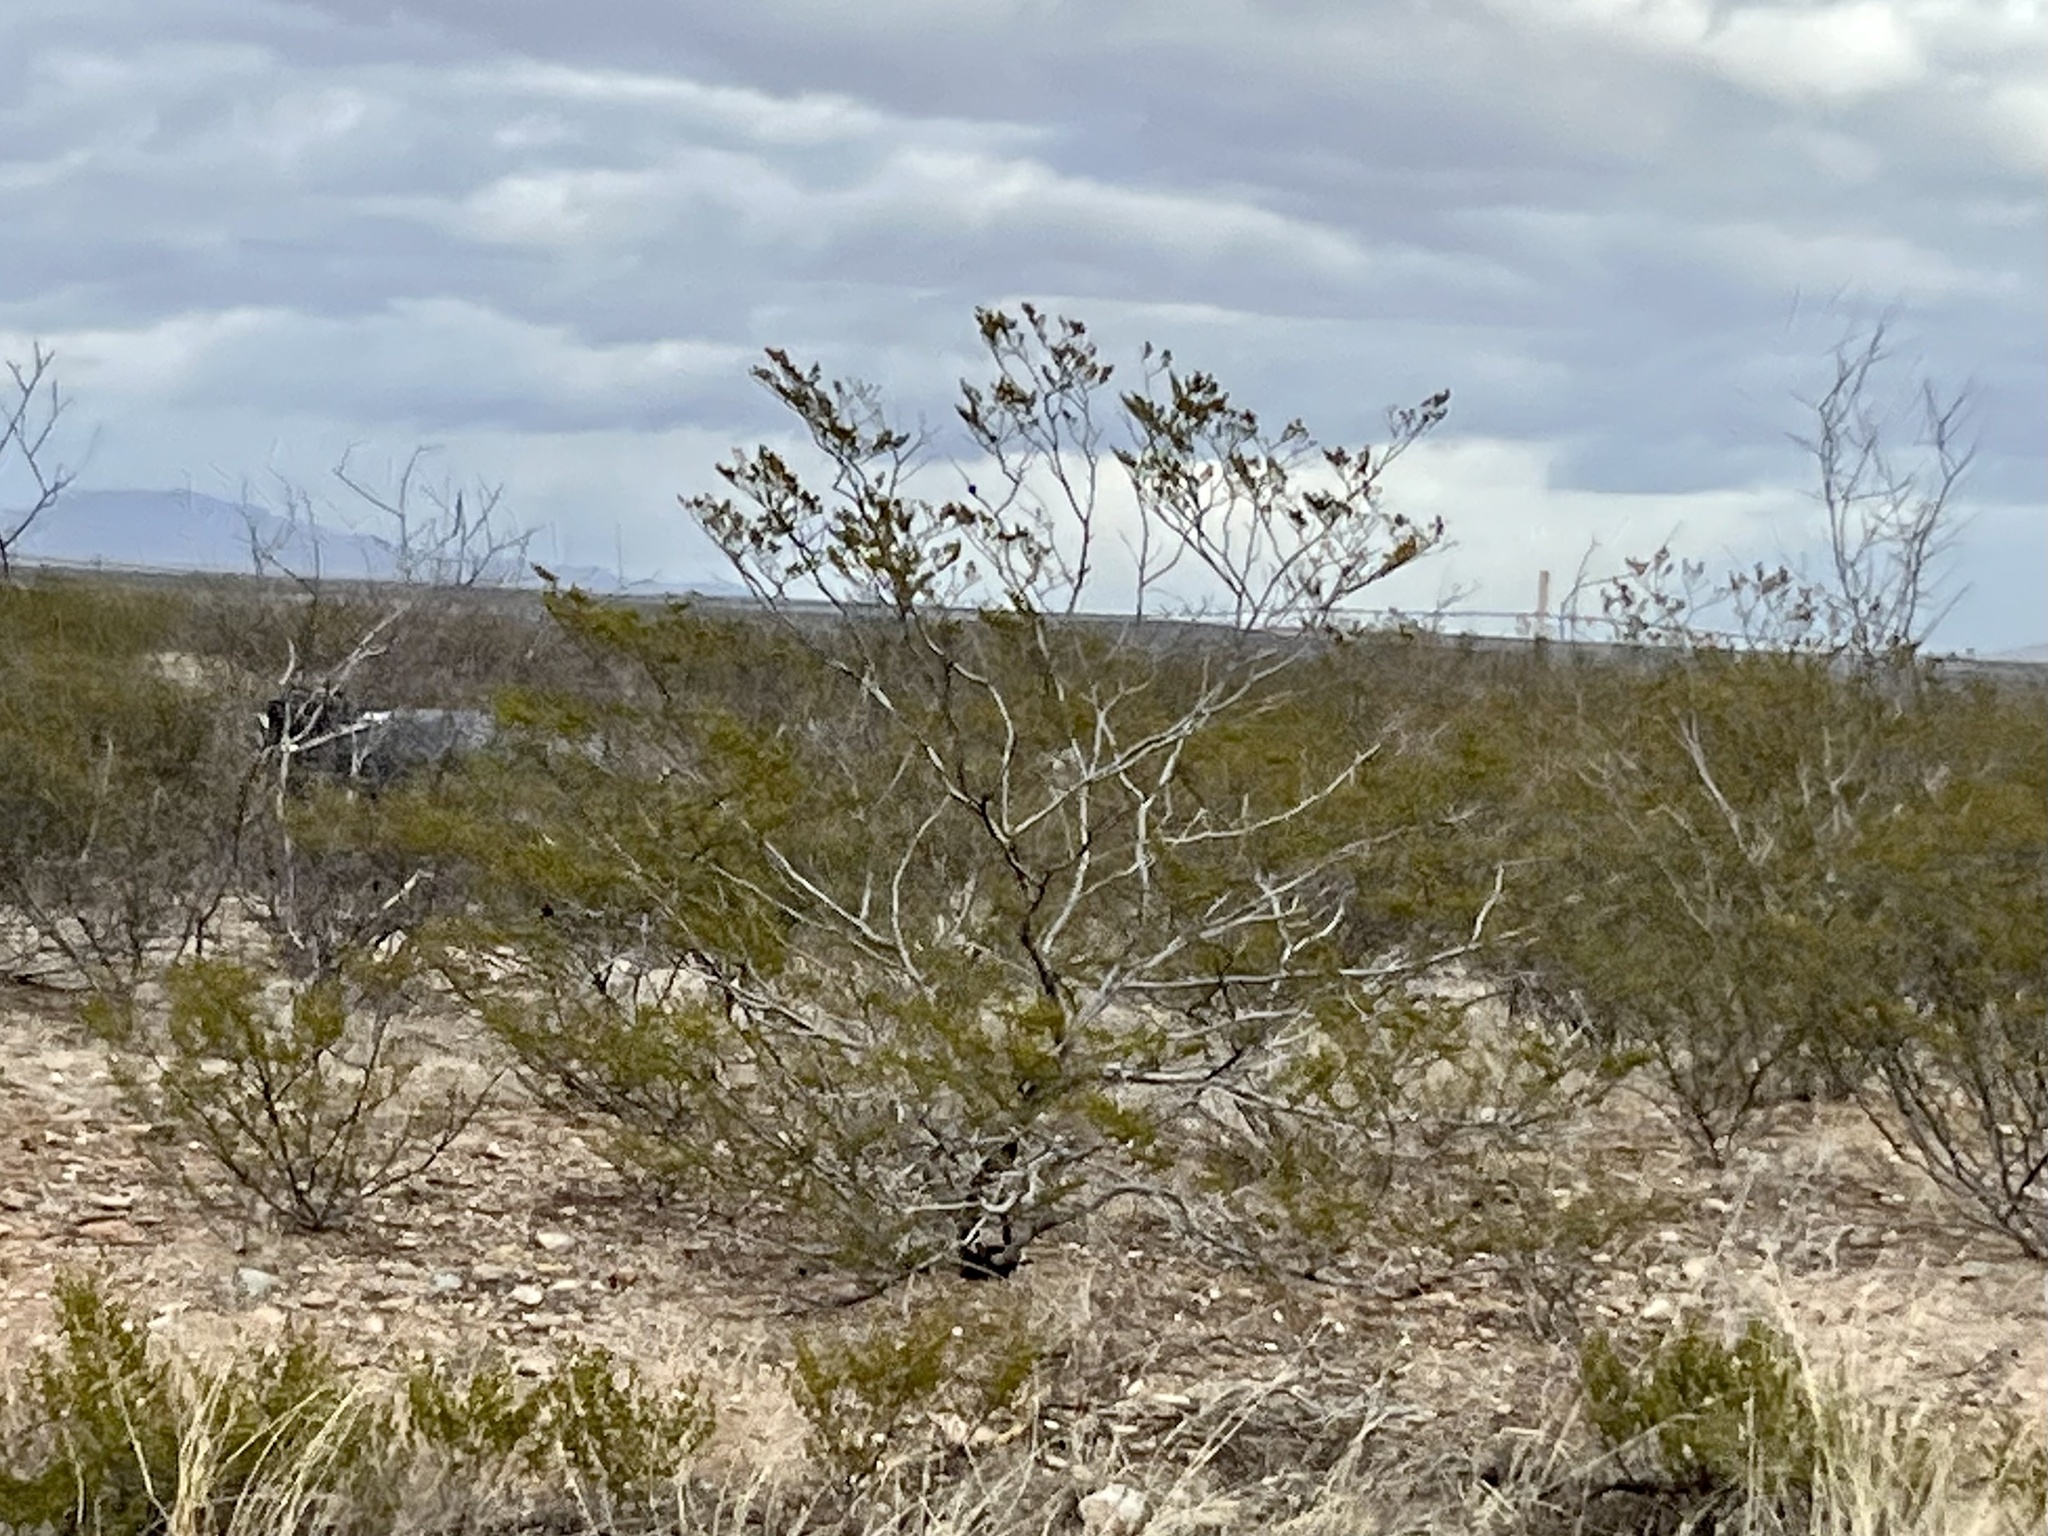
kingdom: Plantae
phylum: Tracheophyta
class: Magnoliopsida
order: Zygophyllales
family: Zygophyllaceae
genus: Larrea
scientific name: Larrea tridentata
